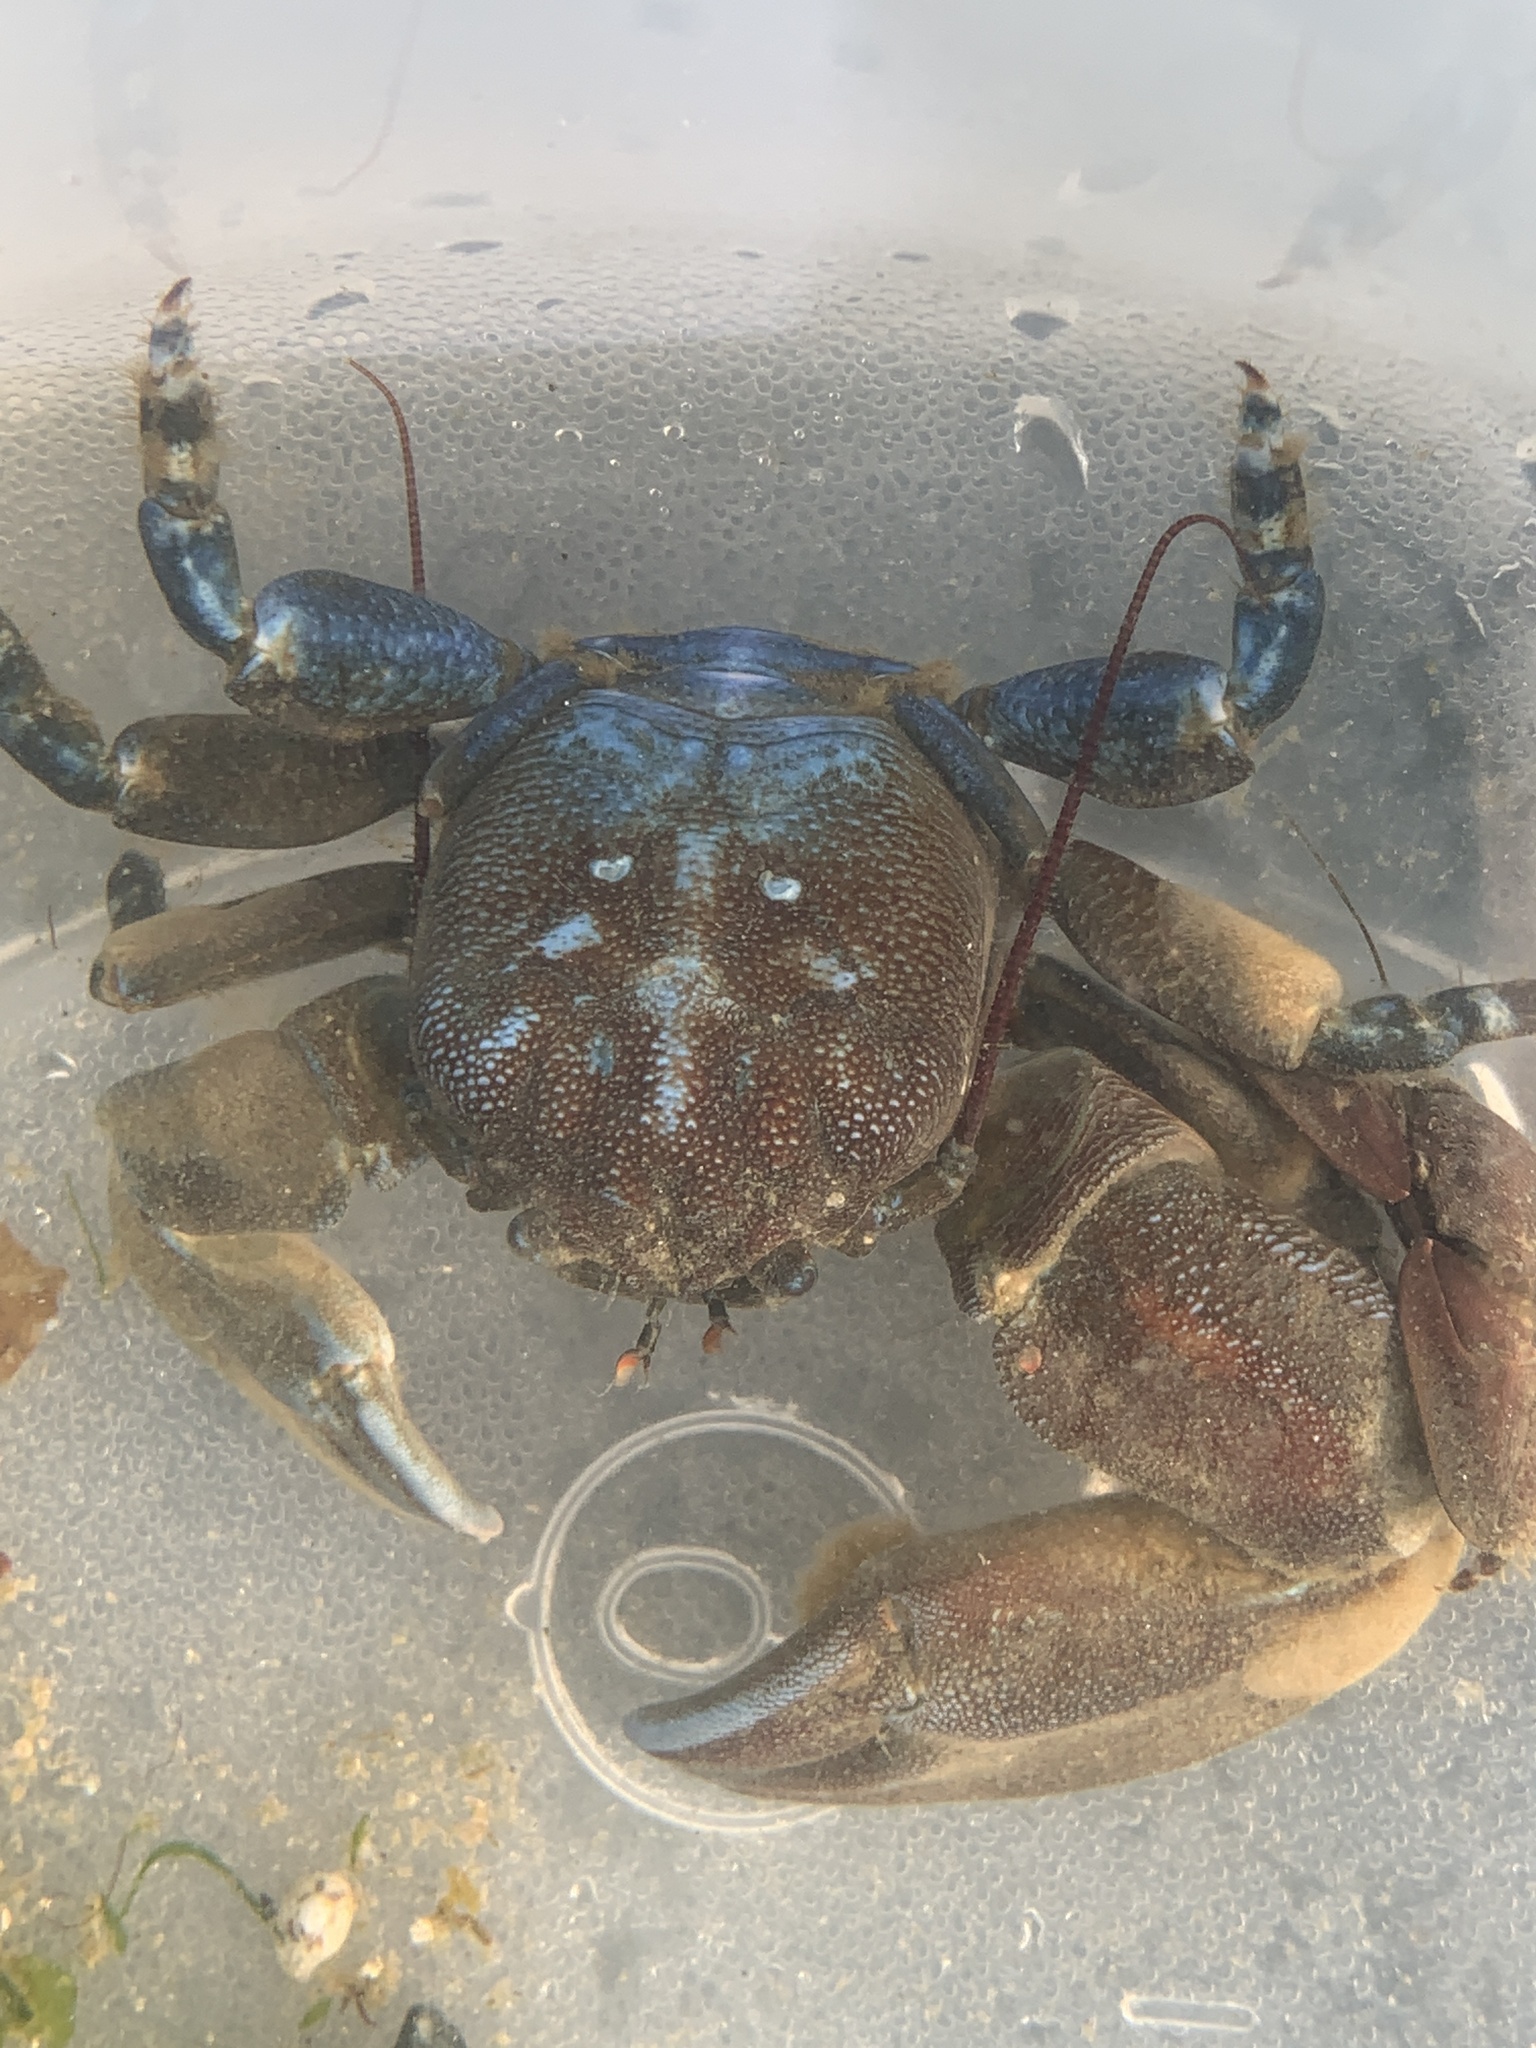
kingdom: Animalia
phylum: Arthropoda
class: Malacostraca
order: Decapoda
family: Porcellanidae
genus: Petrolisthes
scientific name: Petrolisthes cinctipes
